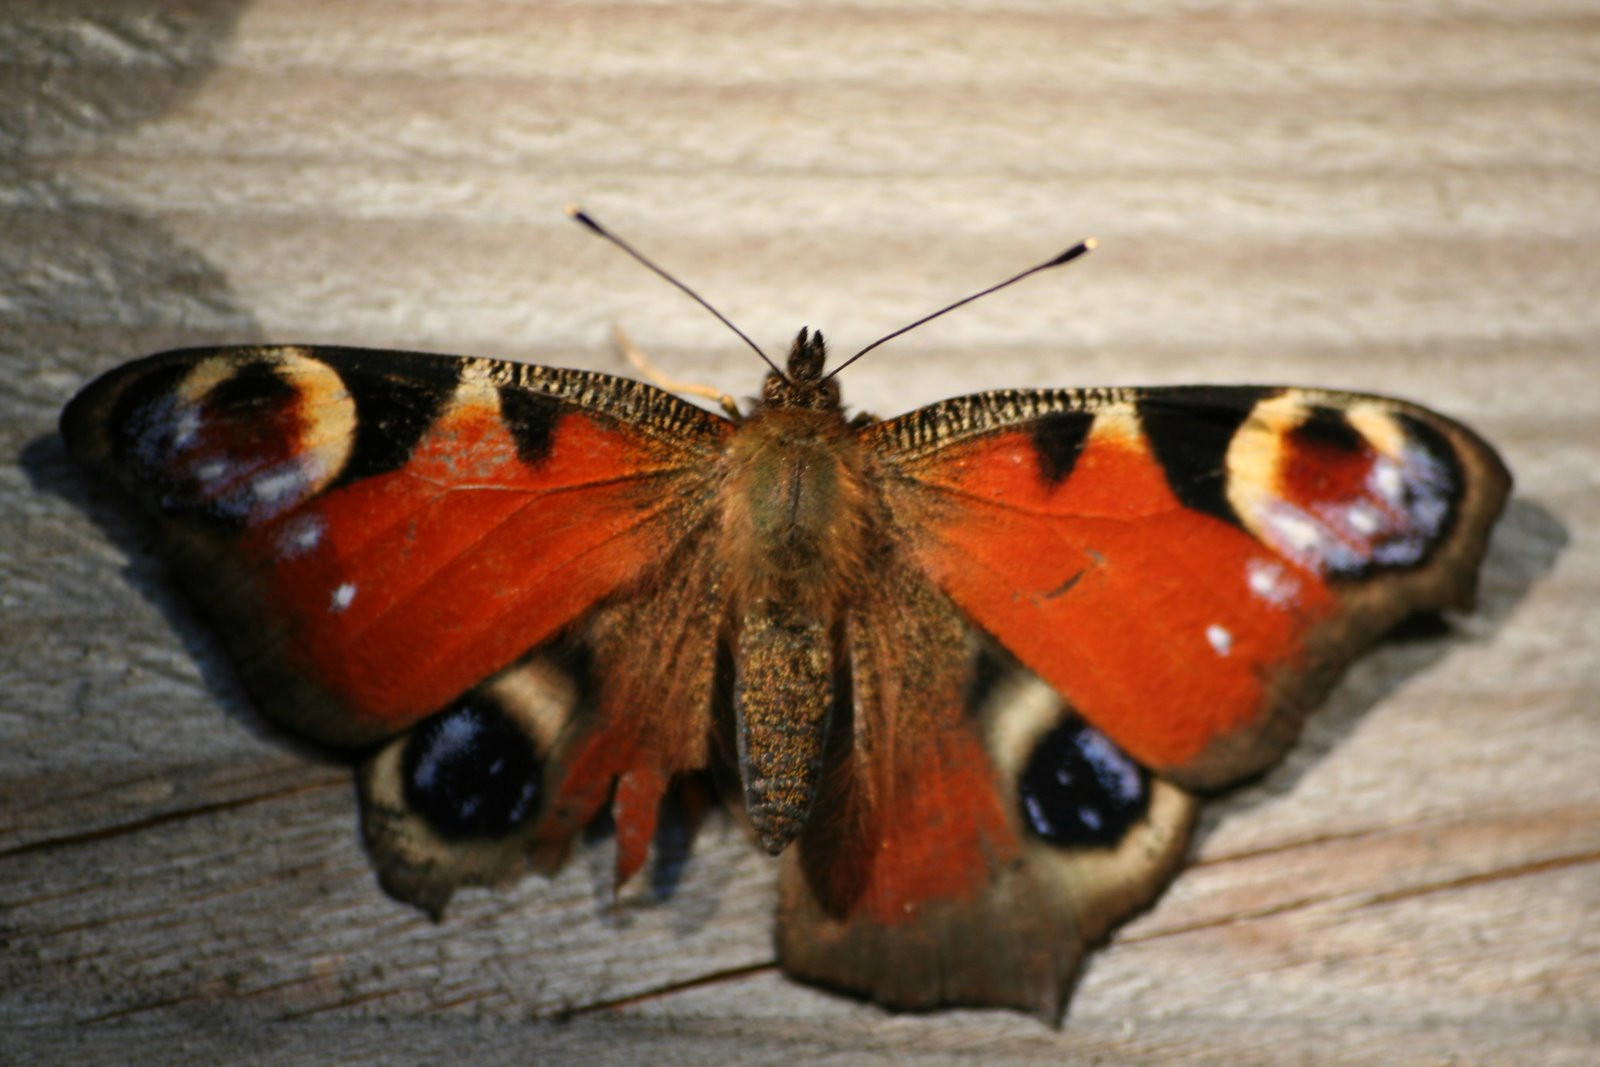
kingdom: Animalia
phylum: Arthropoda
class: Insecta
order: Lepidoptera
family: Nymphalidae
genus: Aglais
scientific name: Aglais io
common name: Peacock
